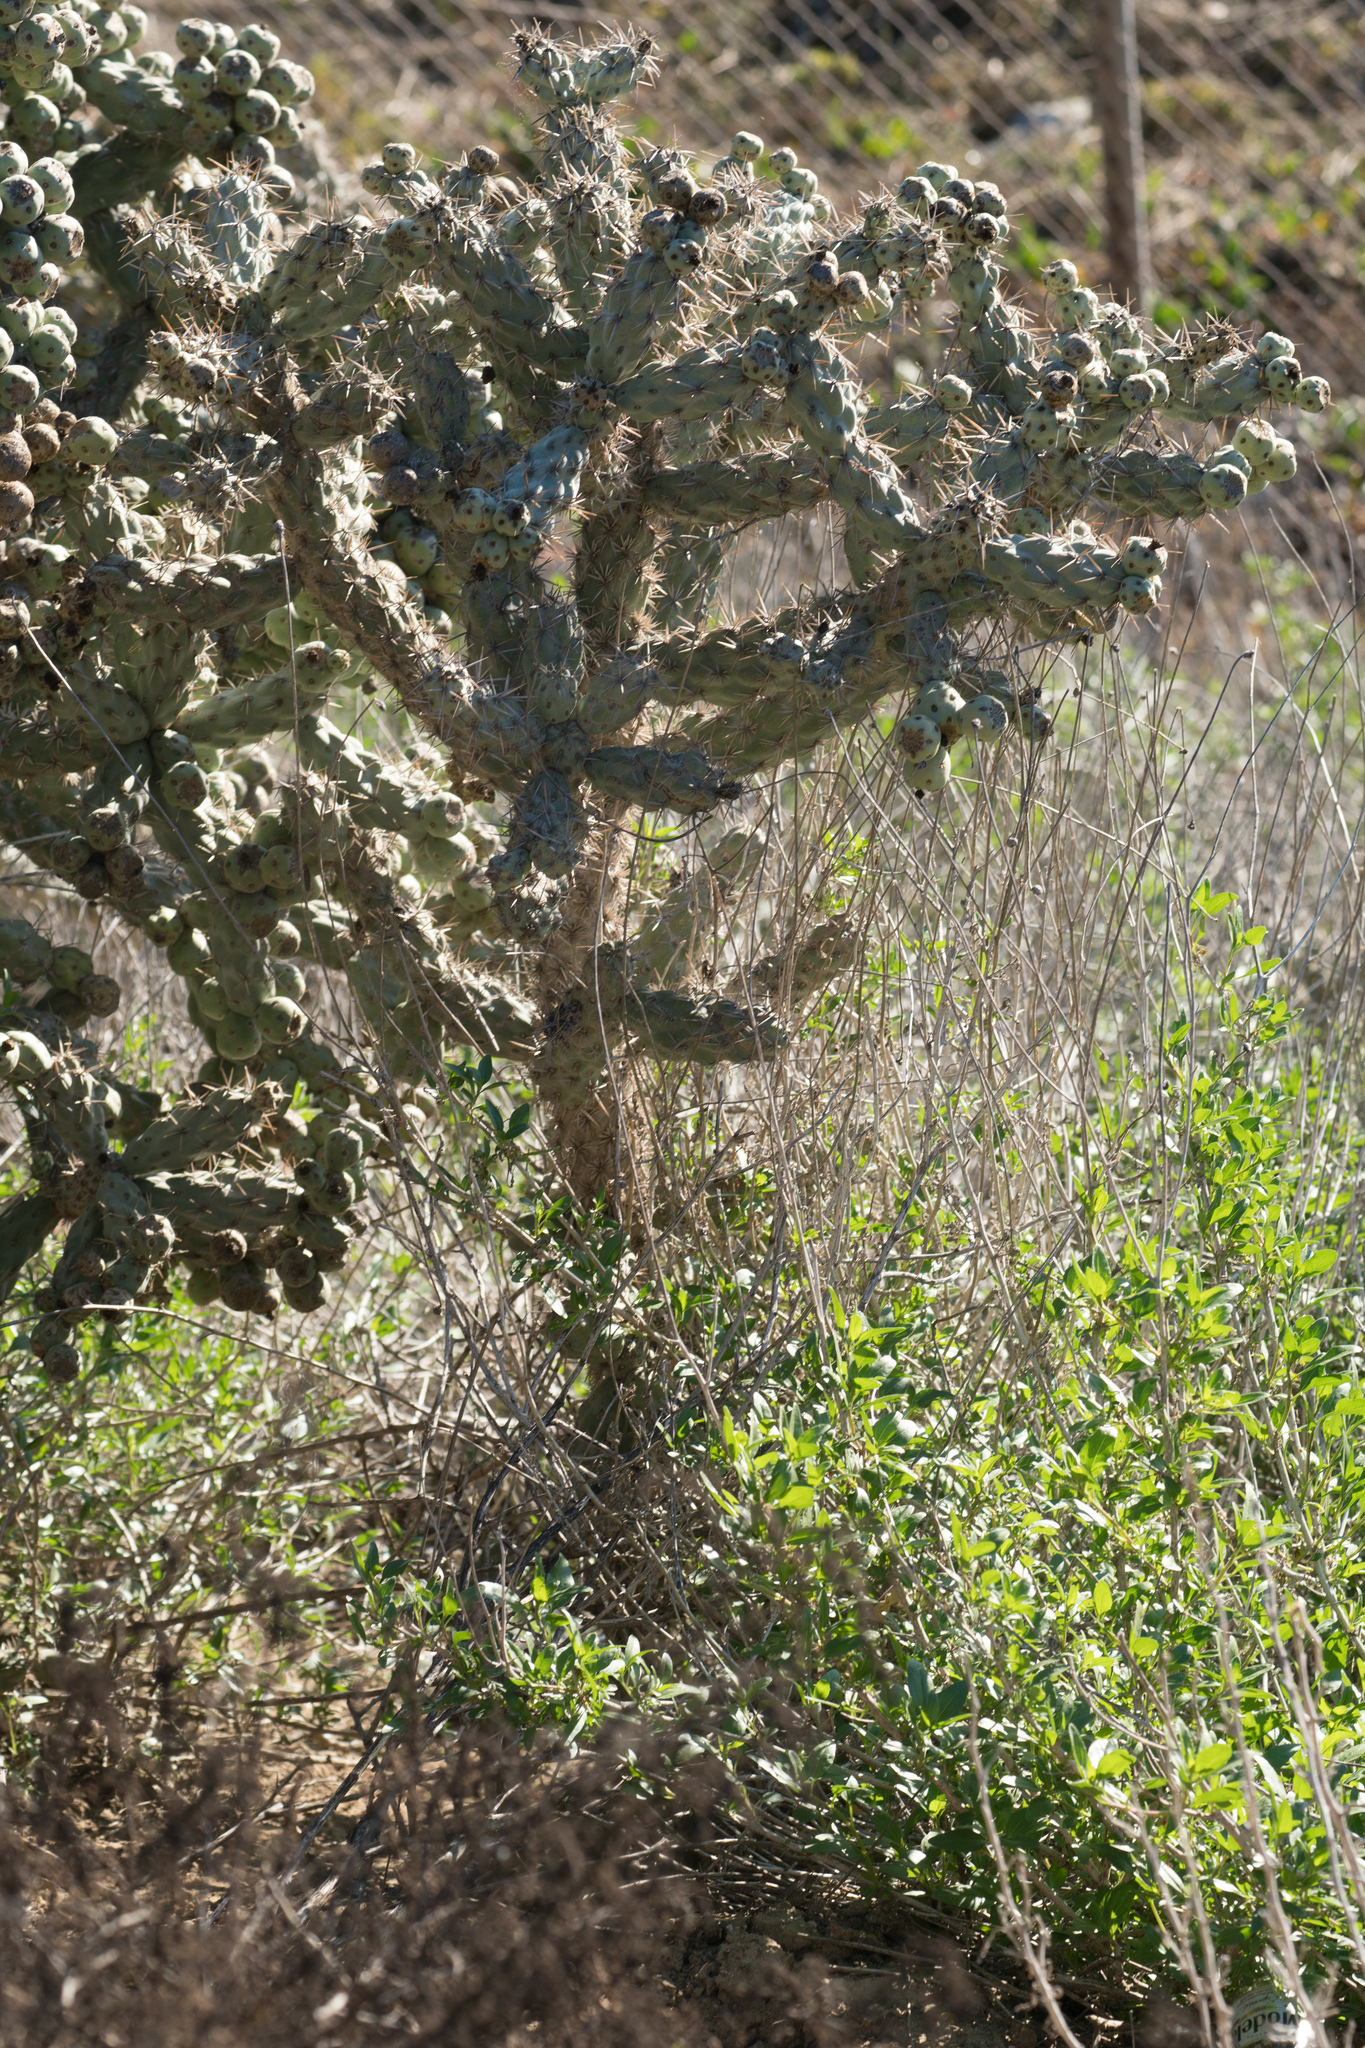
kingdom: Plantae
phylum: Tracheophyta
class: Magnoliopsida
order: Caryophyllales
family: Cactaceae
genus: Cylindropuntia
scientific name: Cylindropuntia prolifera
